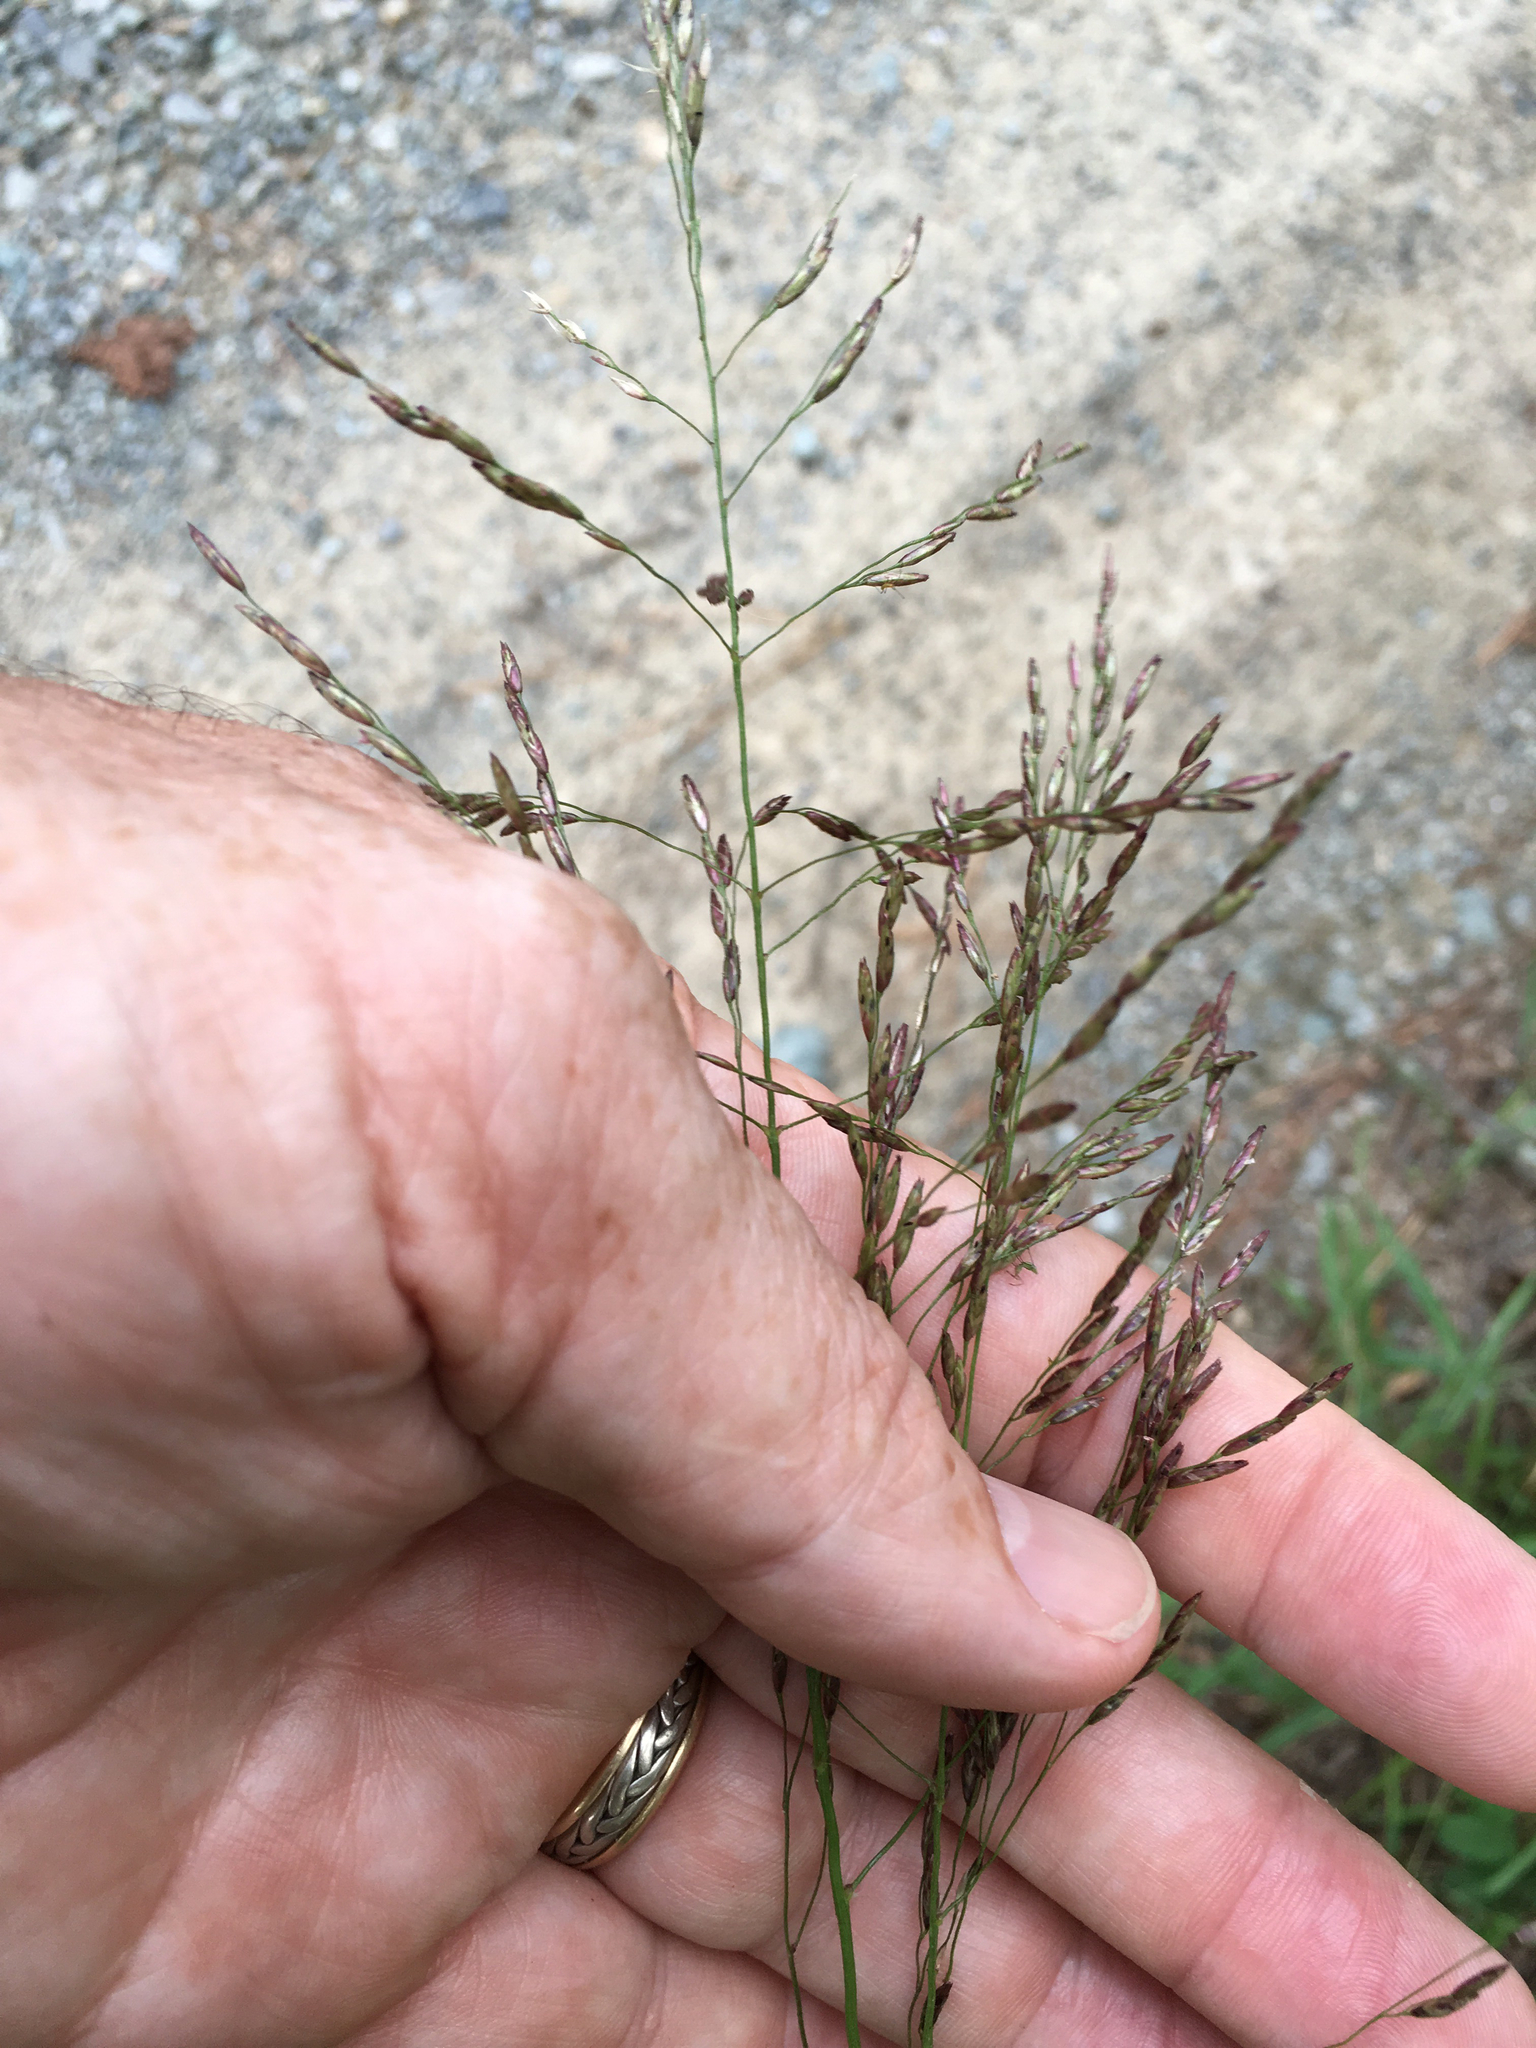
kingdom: Plantae
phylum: Tracheophyta
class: Liliopsida
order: Poales
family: Poaceae
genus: Tridens
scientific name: Tridens flavus
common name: Purpletop
